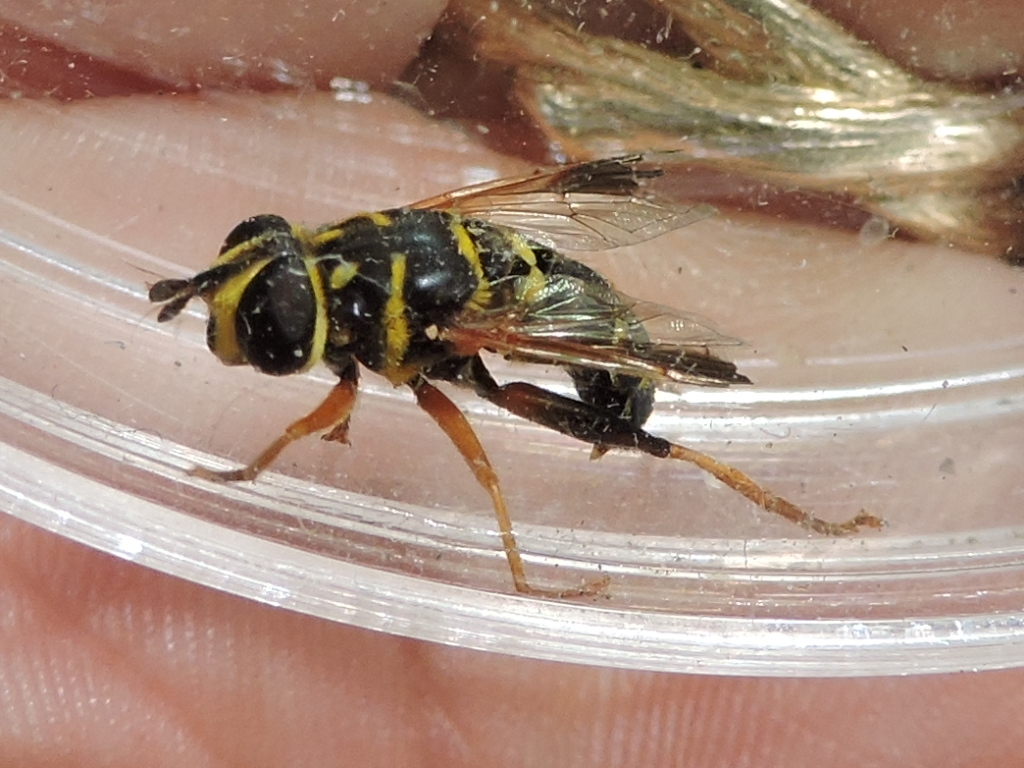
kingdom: Animalia
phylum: Arthropoda
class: Insecta
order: Diptera
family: Syrphidae
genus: Meromacrus
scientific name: Meromacrus acutus
